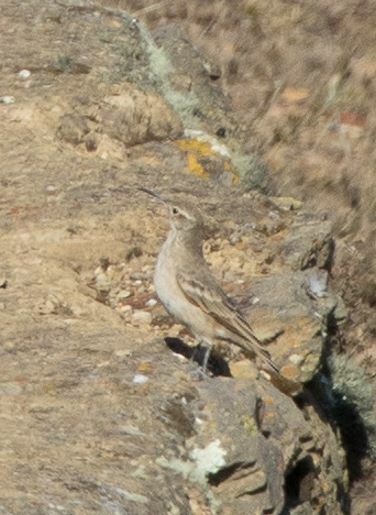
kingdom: Animalia
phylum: Chordata
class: Aves
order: Passeriformes
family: Furnariidae
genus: Geositta
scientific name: Geositta tenuirostris
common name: Slender-billed miner
